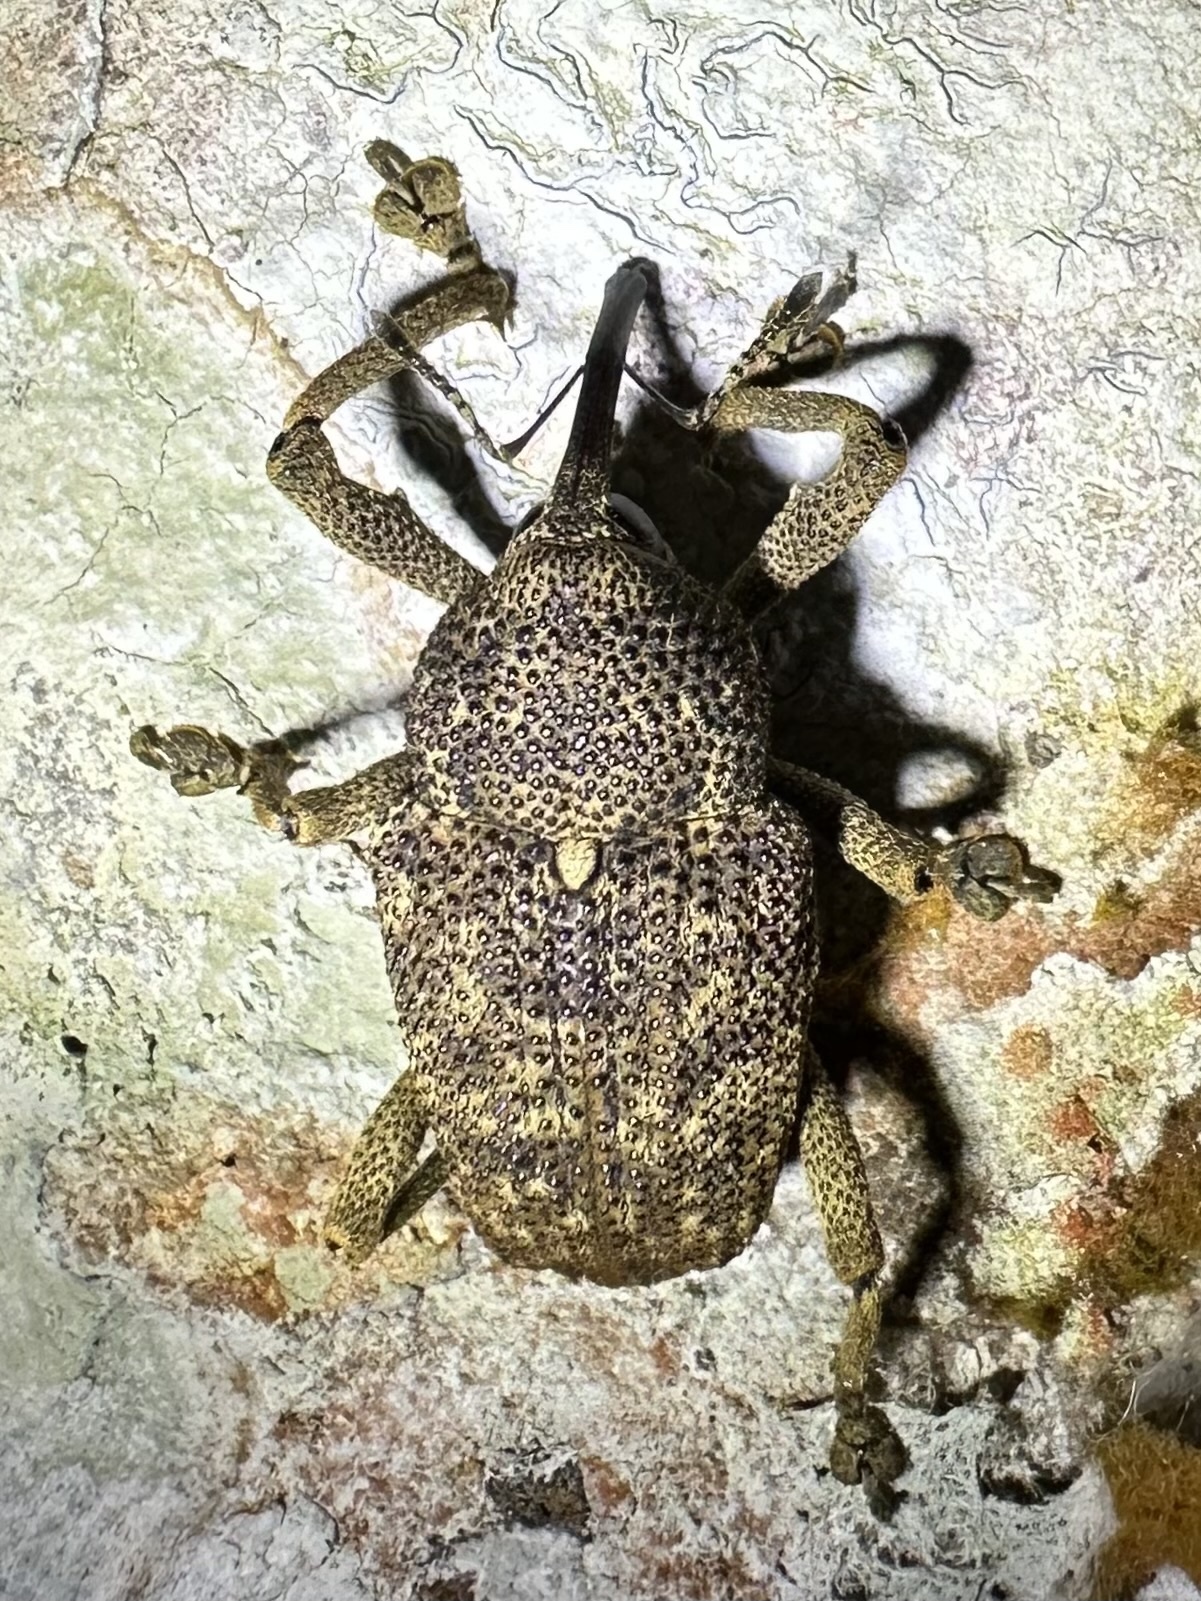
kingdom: Animalia
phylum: Arthropoda
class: Insecta
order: Coleoptera
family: Curculionidae
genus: Homalinotus
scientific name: Homalinotus
